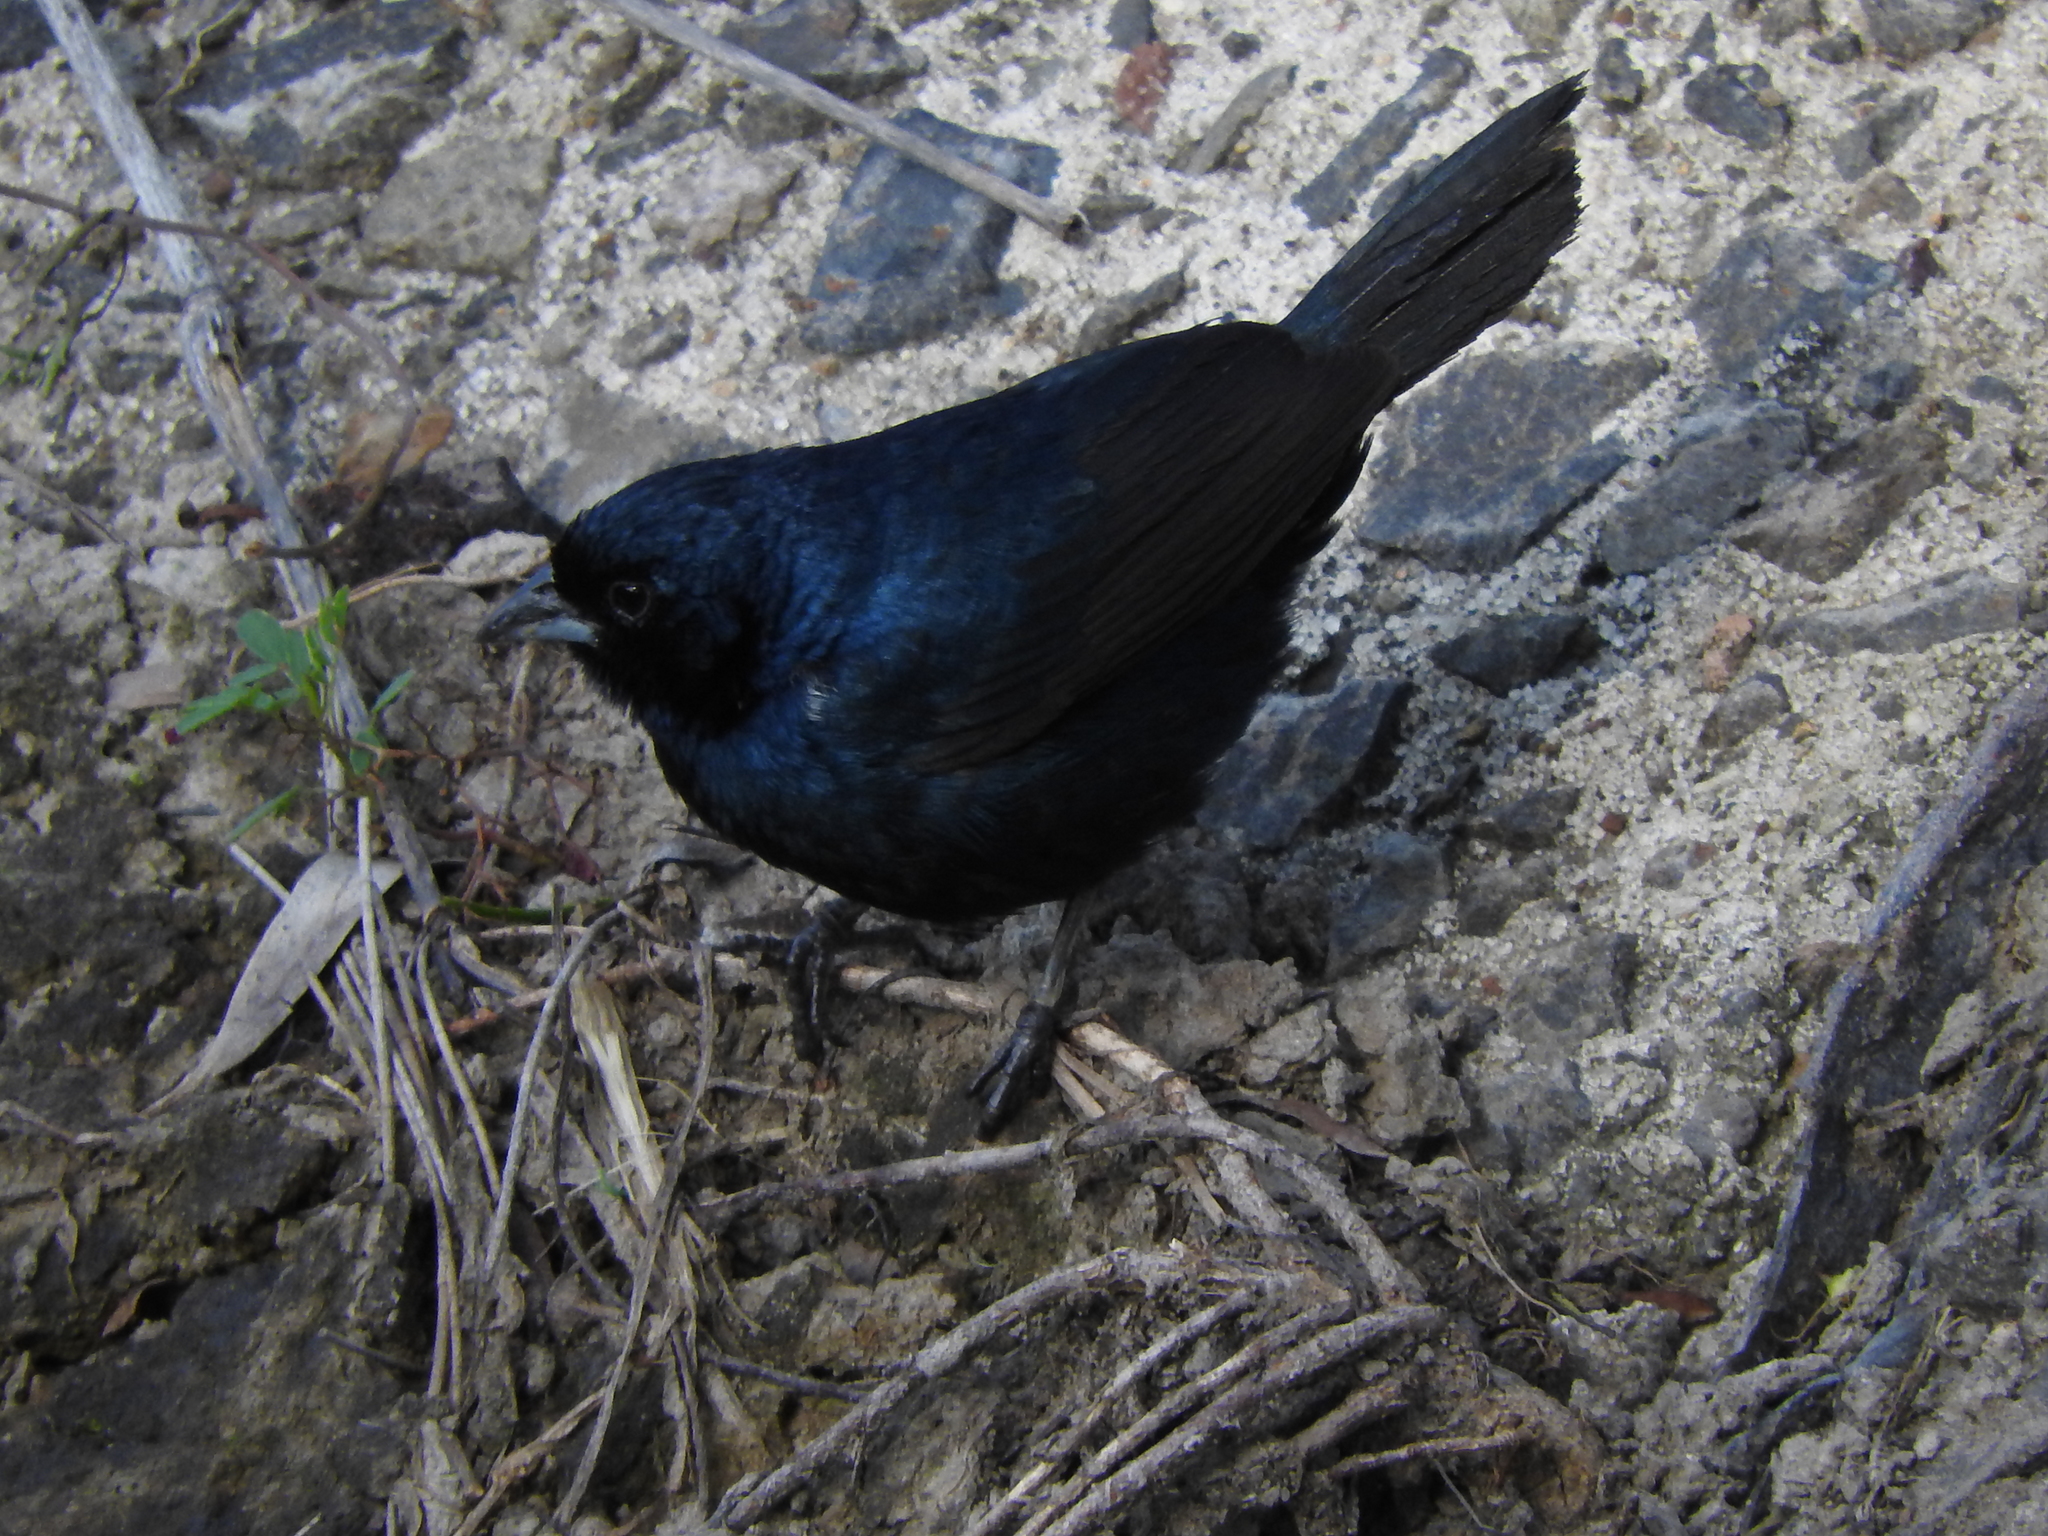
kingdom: Animalia
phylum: Chordata
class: Aves
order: Passeriformes
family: Thraupidae
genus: Volatinia
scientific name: Volatinia jacarina
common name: Blue-black grassquit
